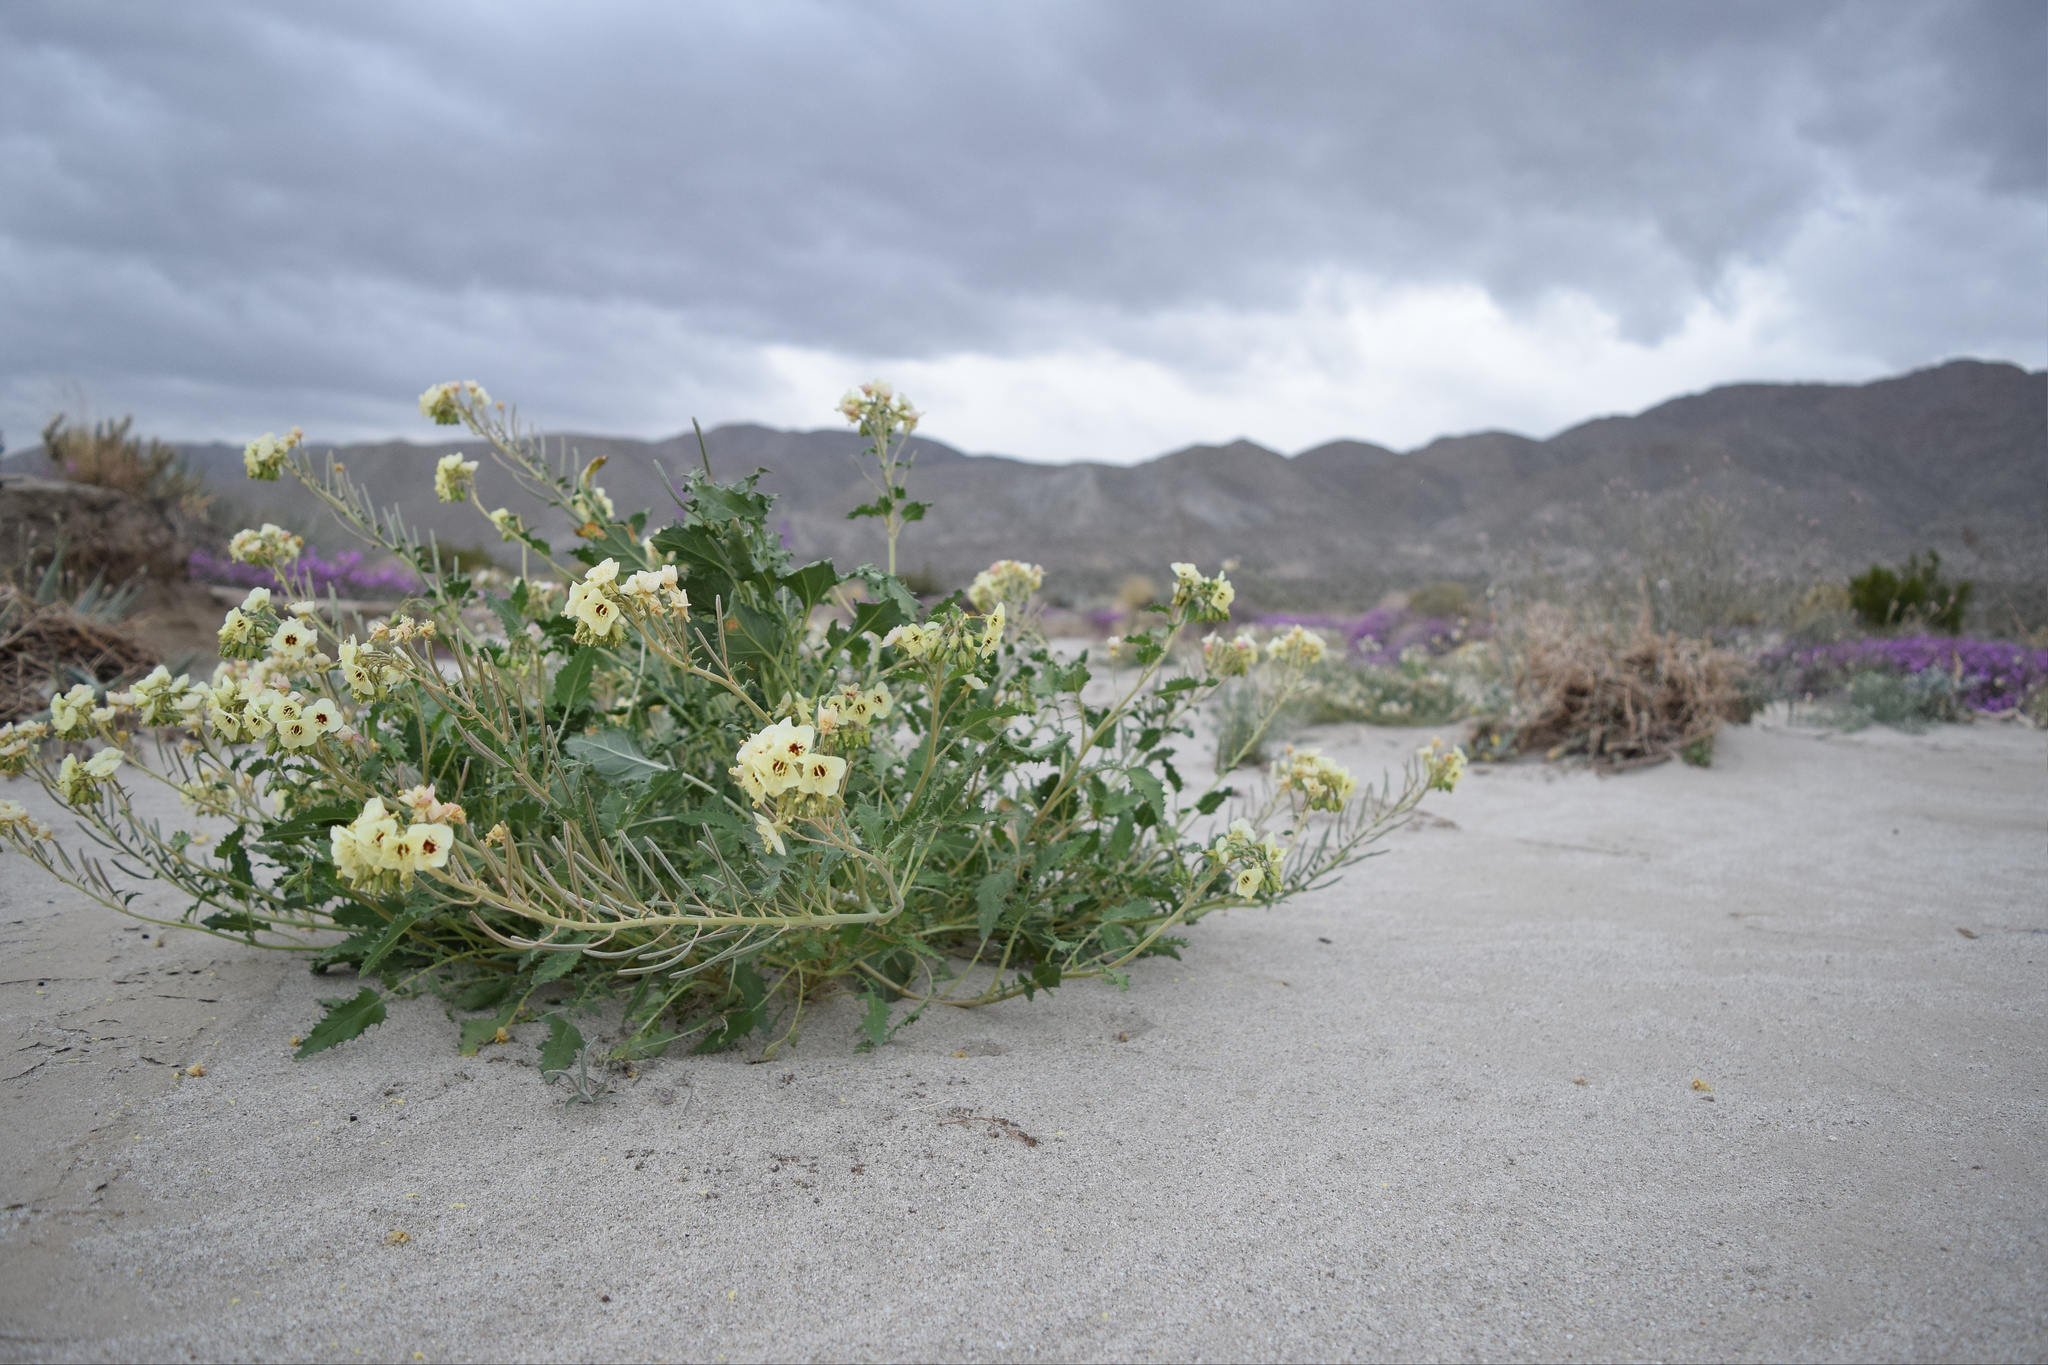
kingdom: Plantae
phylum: Tracheophyta
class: Magnoliopsida
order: Myrtales
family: Onagraceae
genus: Chylismia
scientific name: Chylismia claviformis
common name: Browneyes
